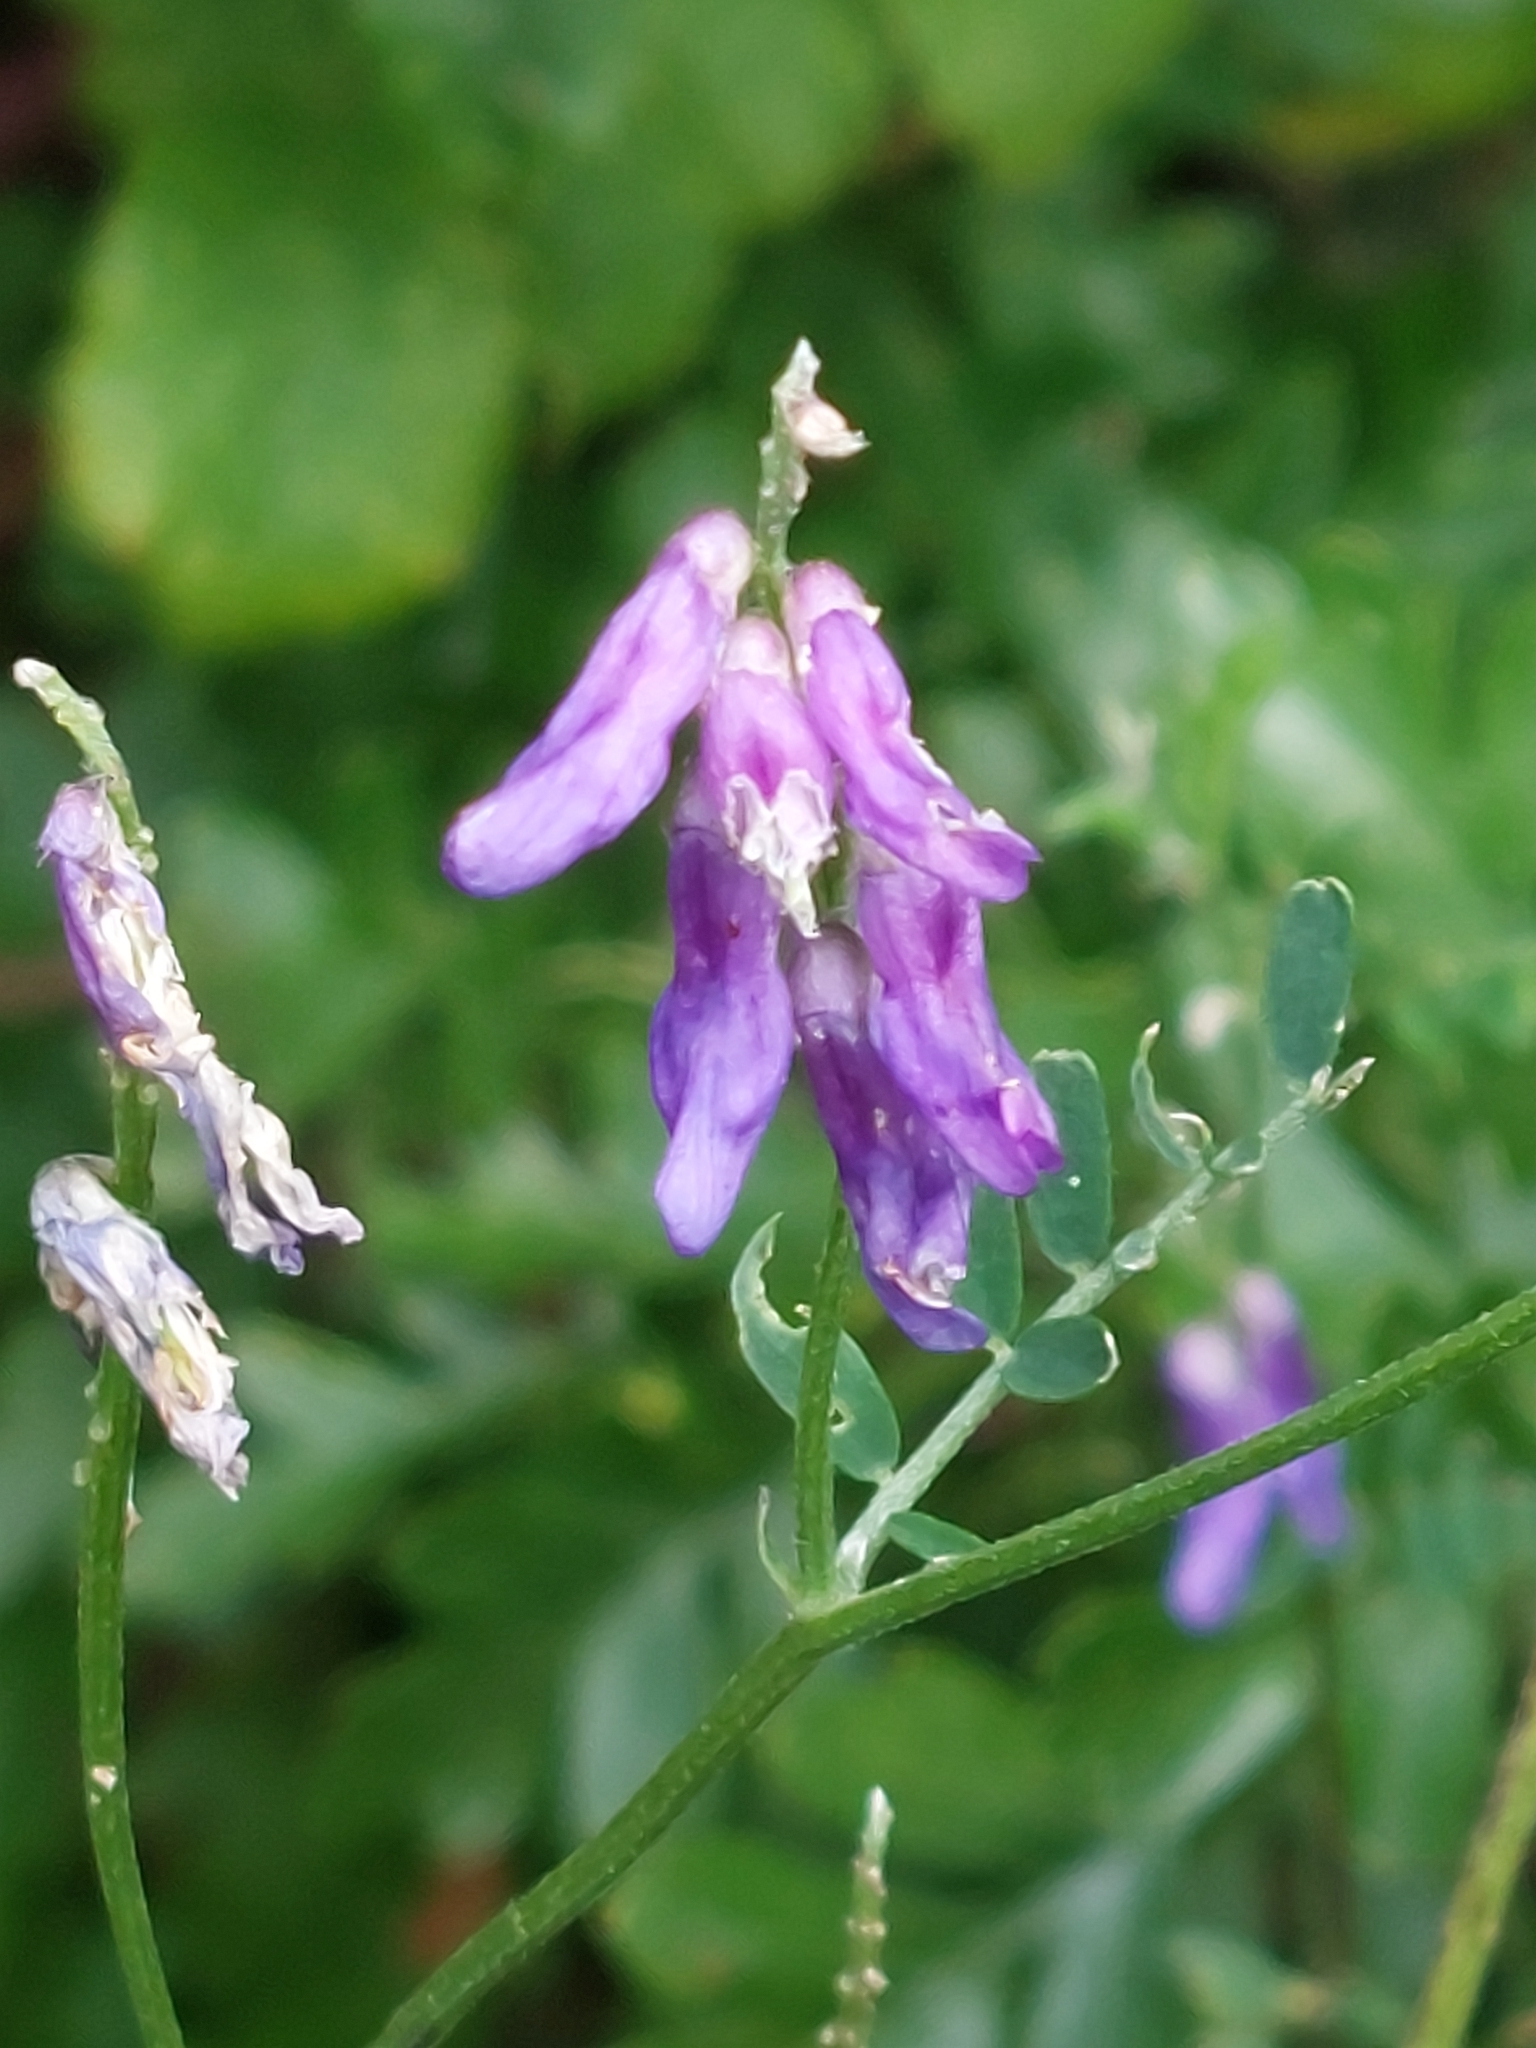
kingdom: Plantae
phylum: Tracheophyta
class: Magnoliopsida
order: Fabales
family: Fabaceae
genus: Vicia
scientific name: Vicia cracca
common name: Bird vetch
